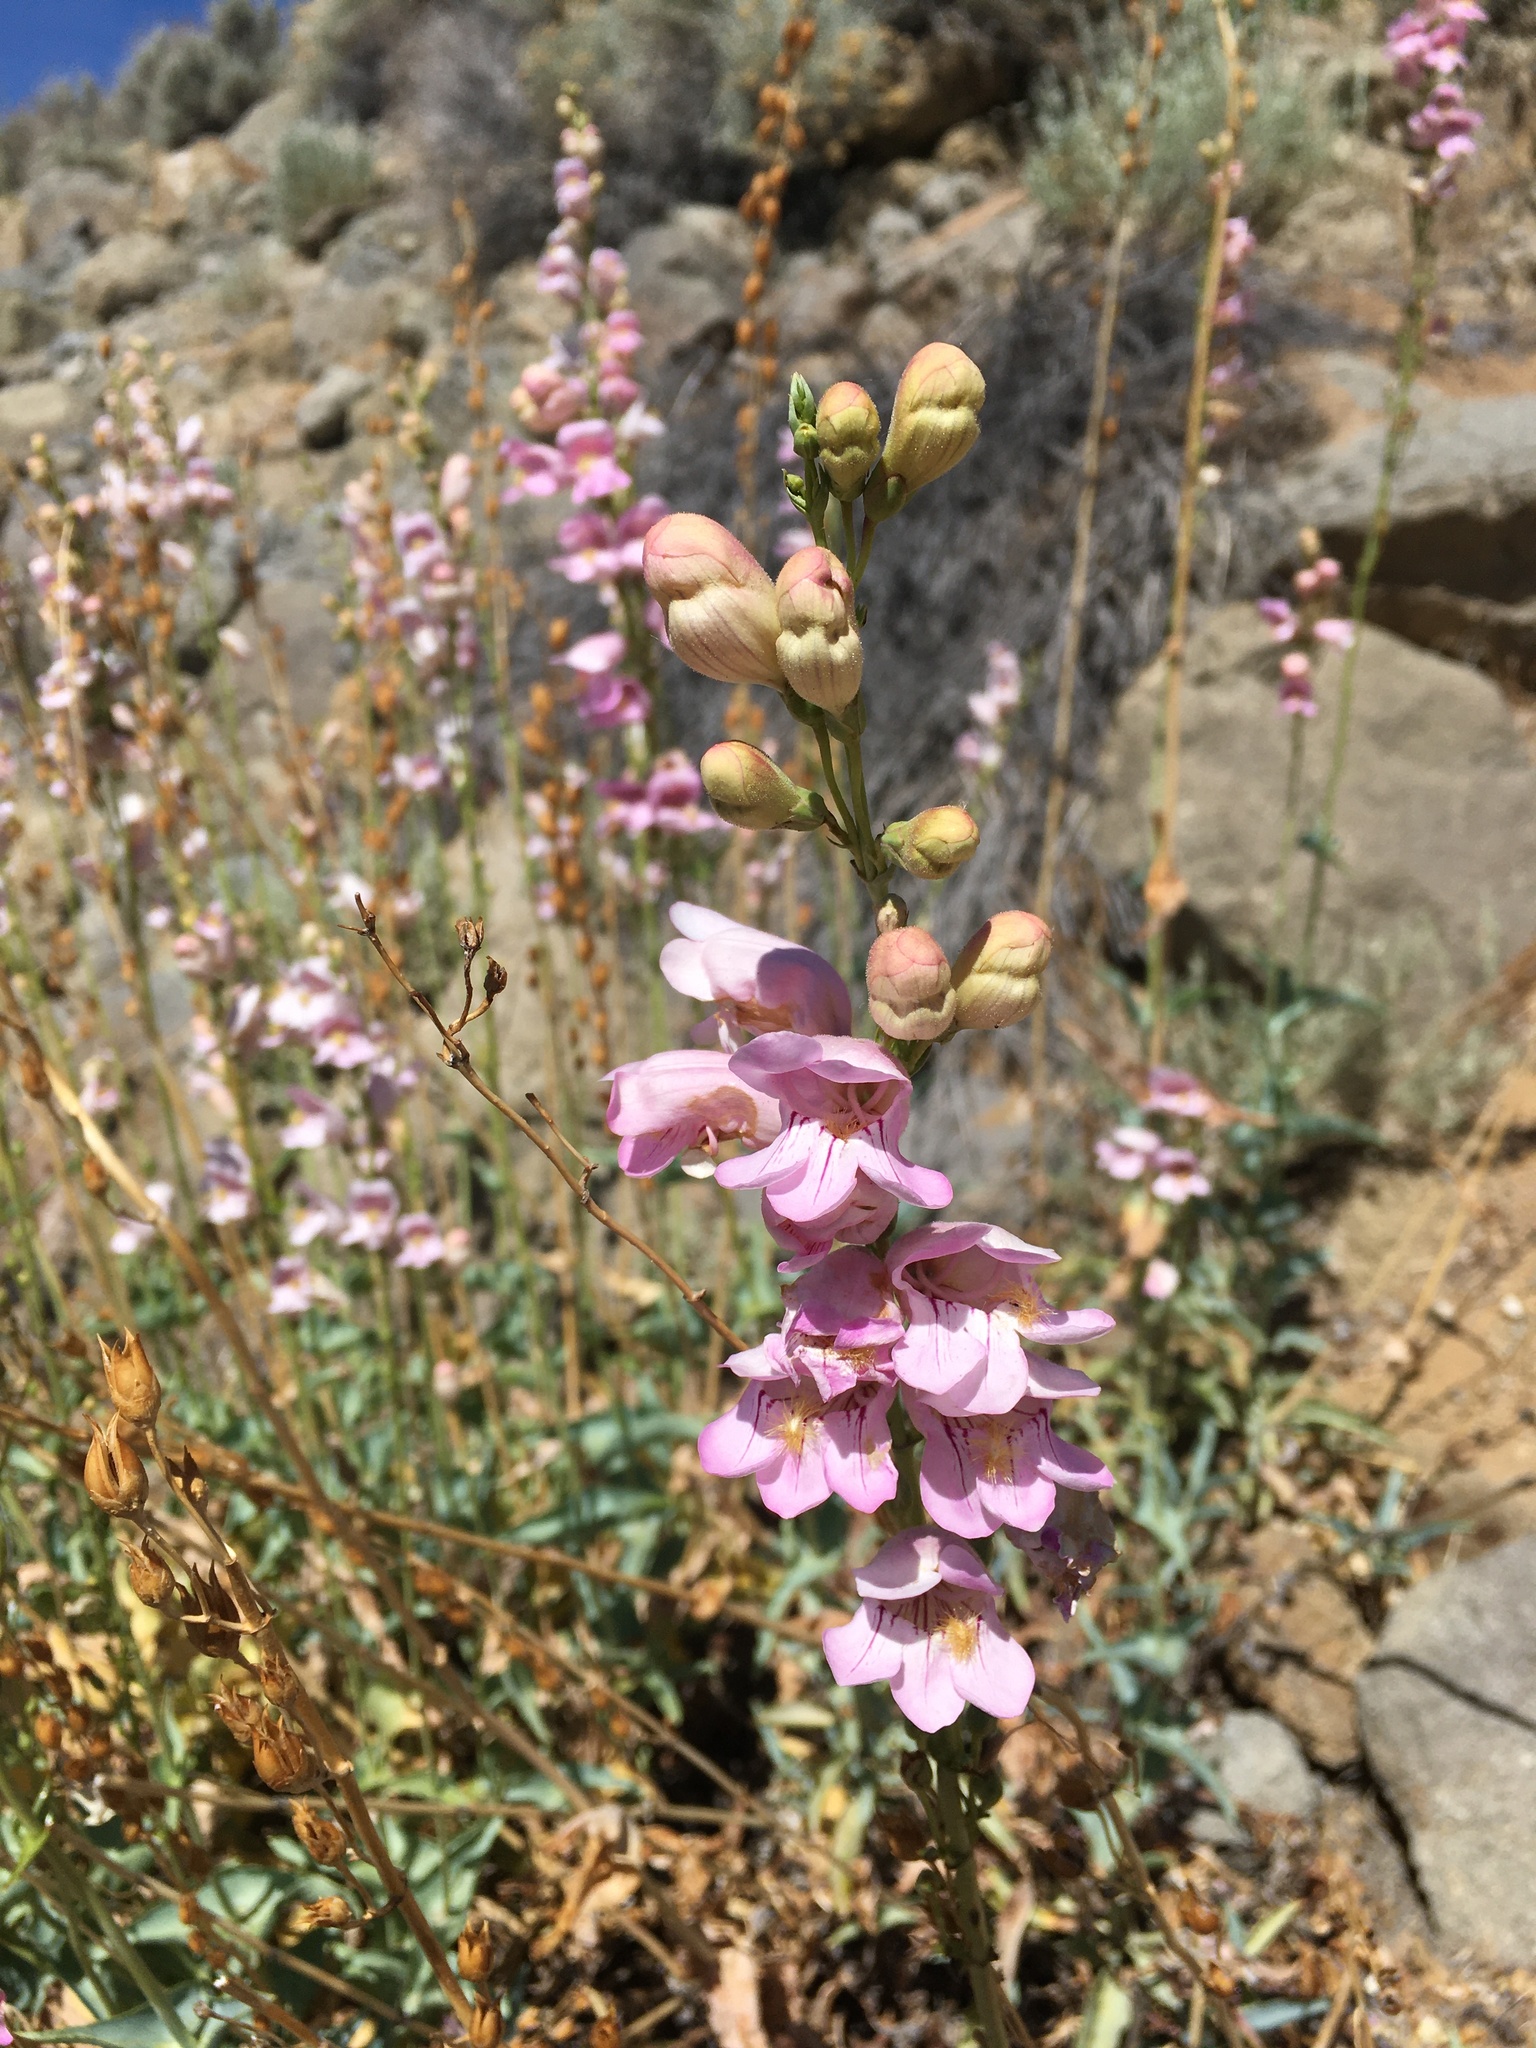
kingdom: Plantae
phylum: Tracheophyta
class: Magnoliopsida
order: Lamiales
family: Plantaginaceae
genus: Penstemon
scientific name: Penstemon palmeri
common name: Palmer penstemon
